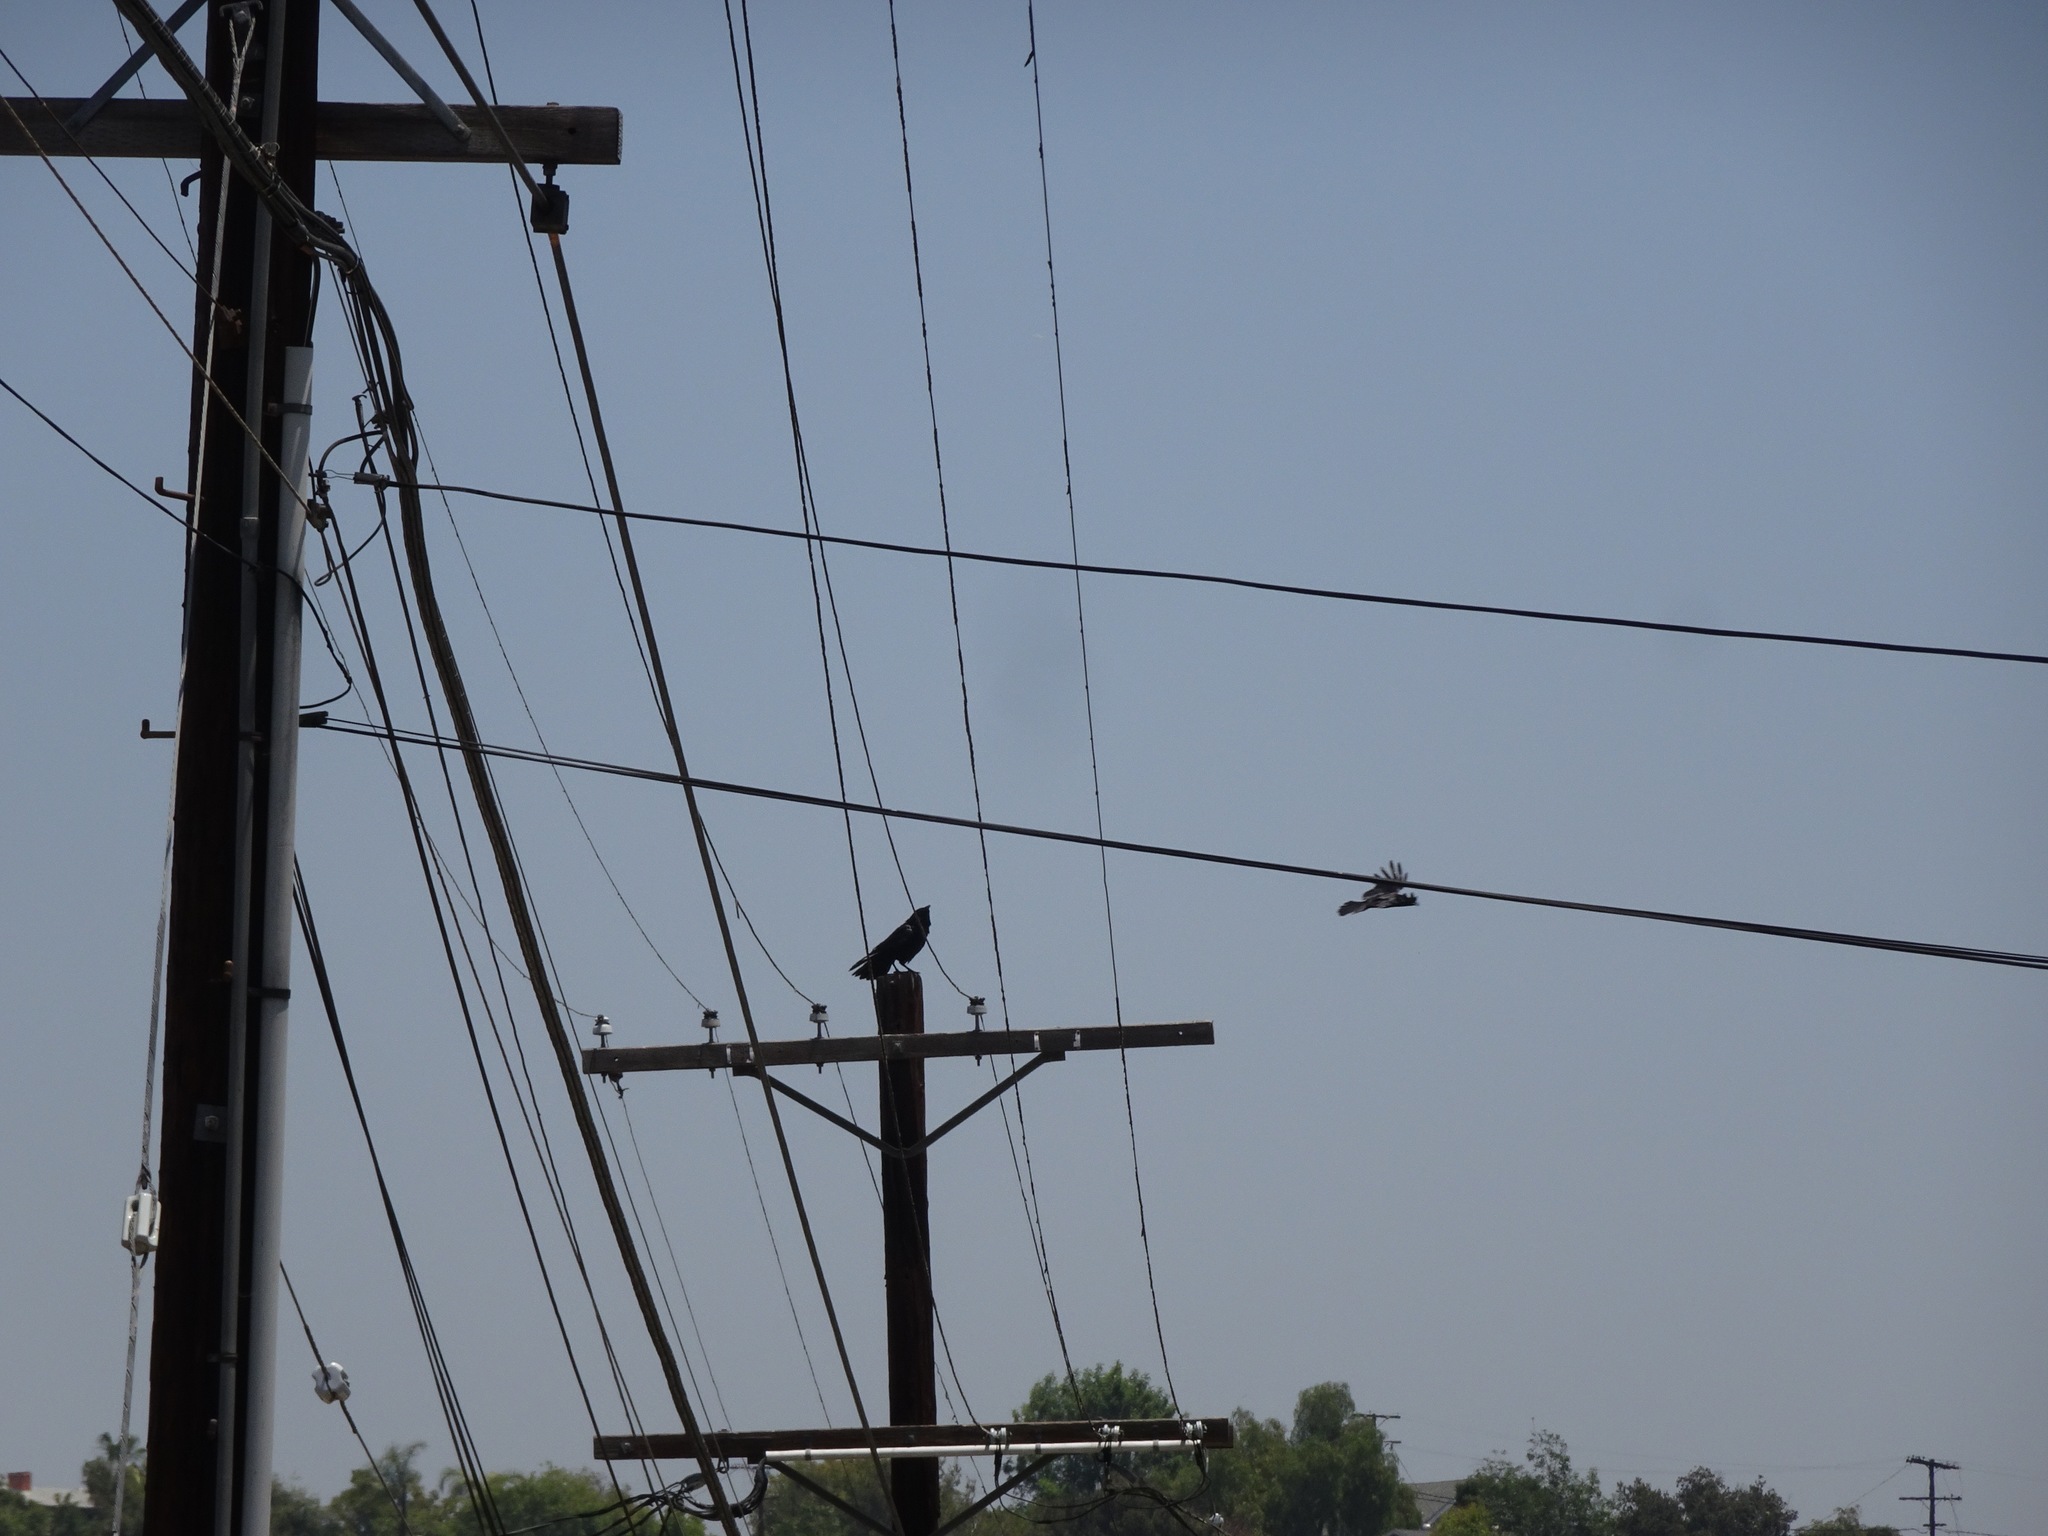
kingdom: Animalia
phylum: Chordata
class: Aves
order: Passeriformes
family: Corvidae
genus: Corvus
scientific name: Corvus corax
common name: Common raven
